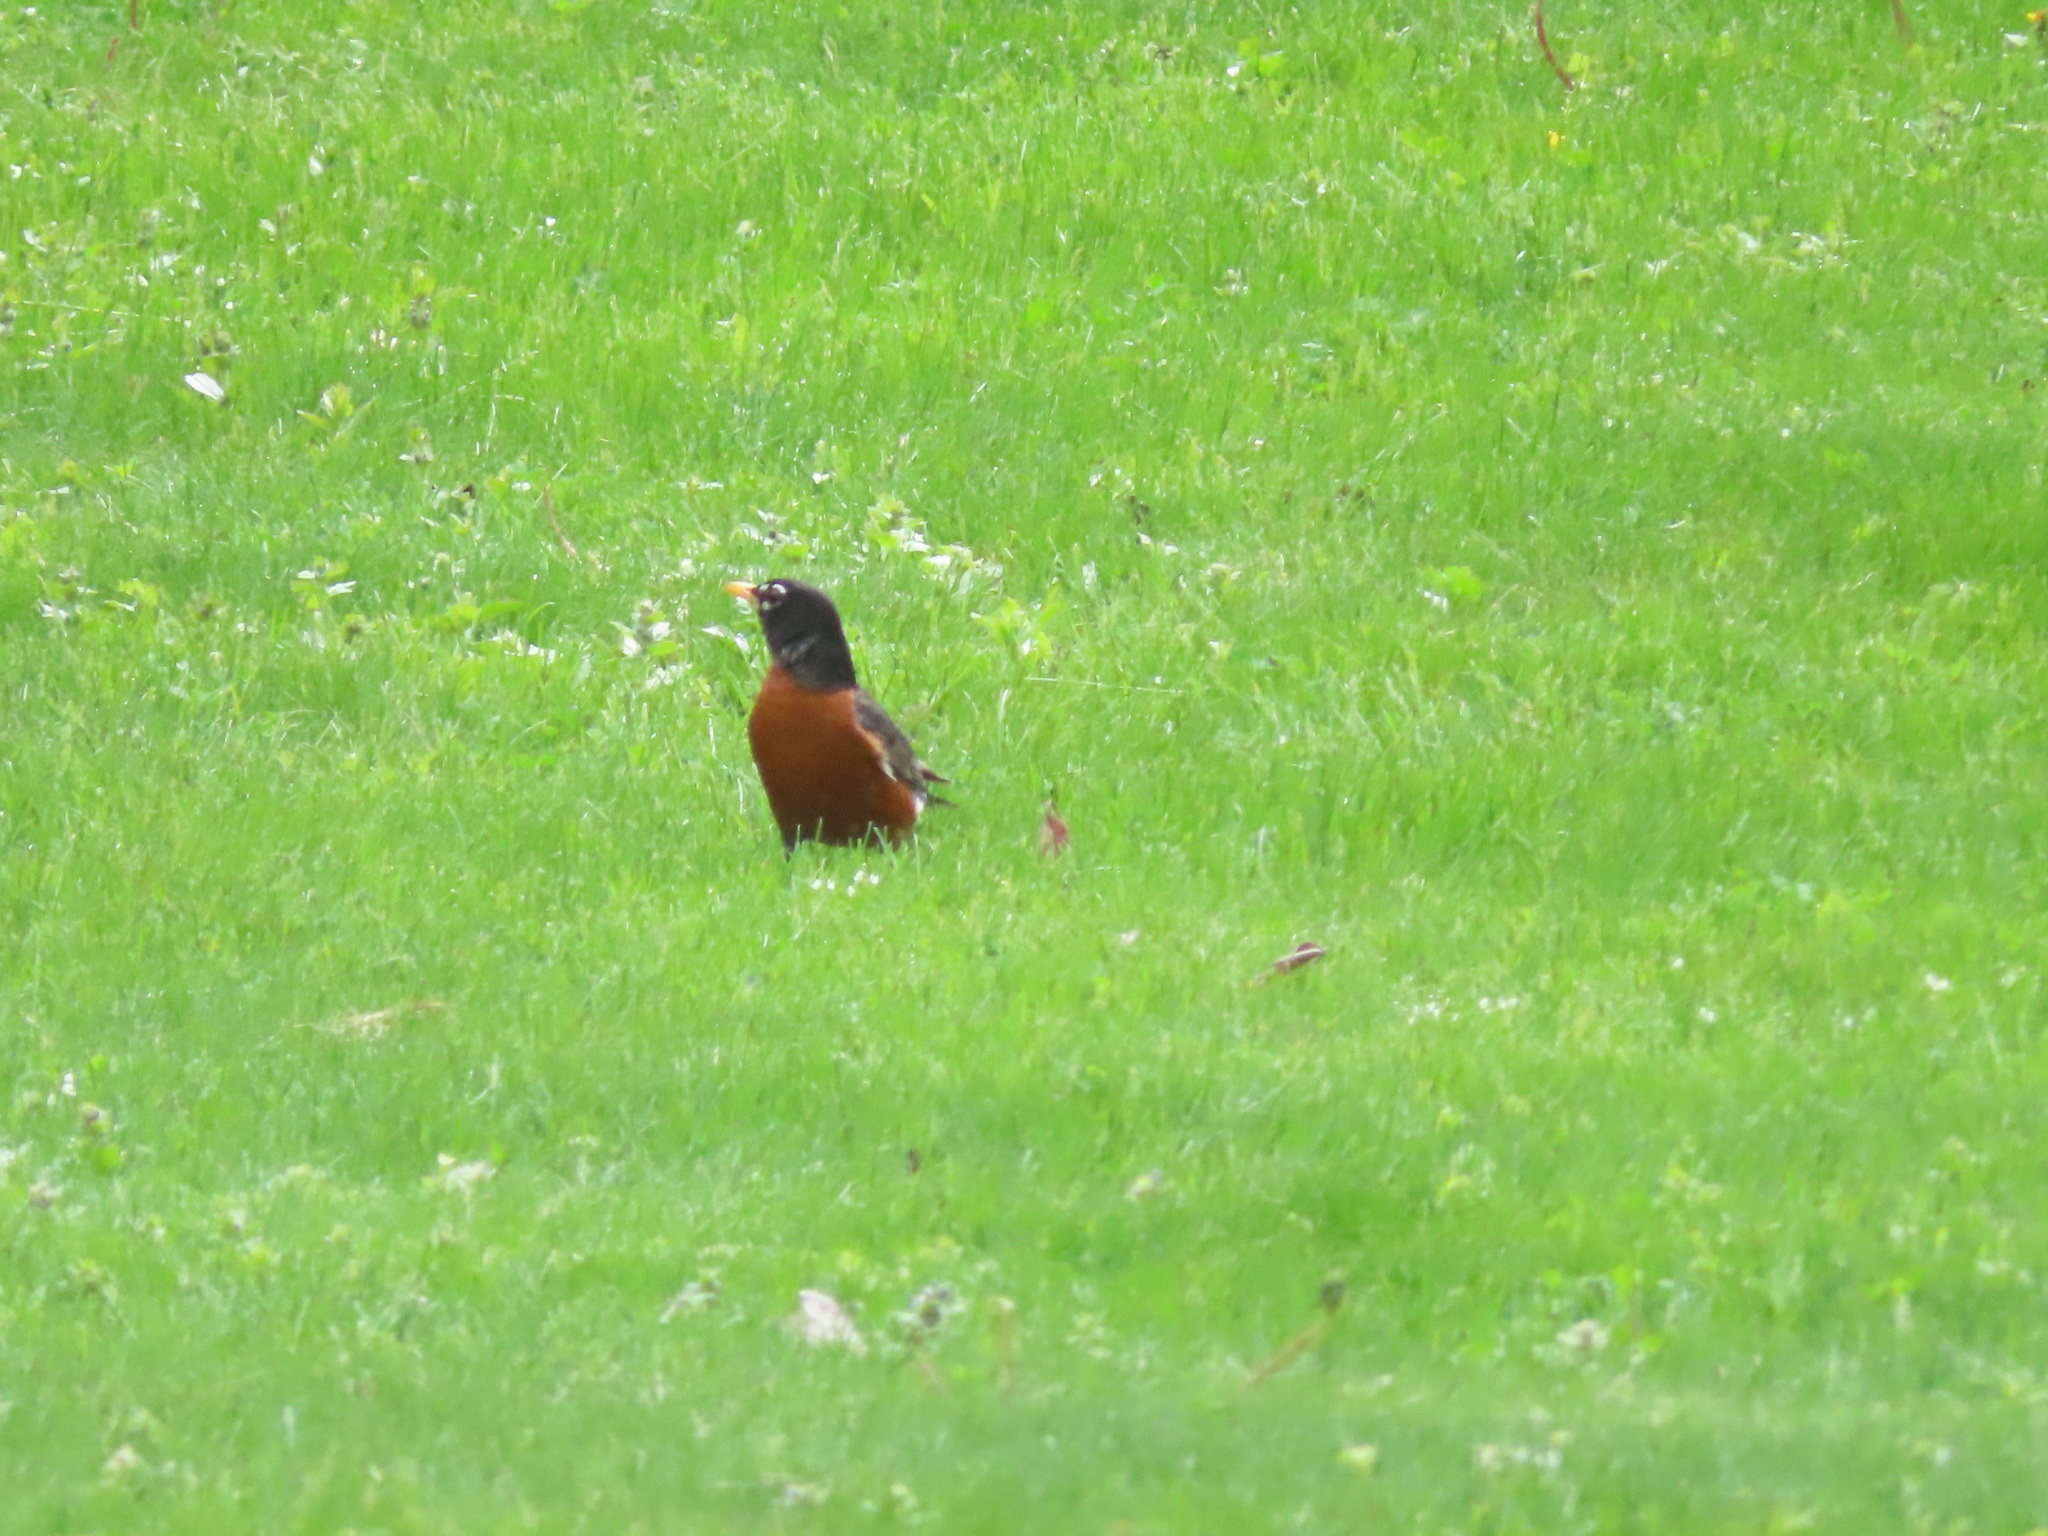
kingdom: Animalia
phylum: Chordata
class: Aves
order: Passeriformes
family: Turdidae
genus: Turdus
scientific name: Turdus migratorius
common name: American robin
